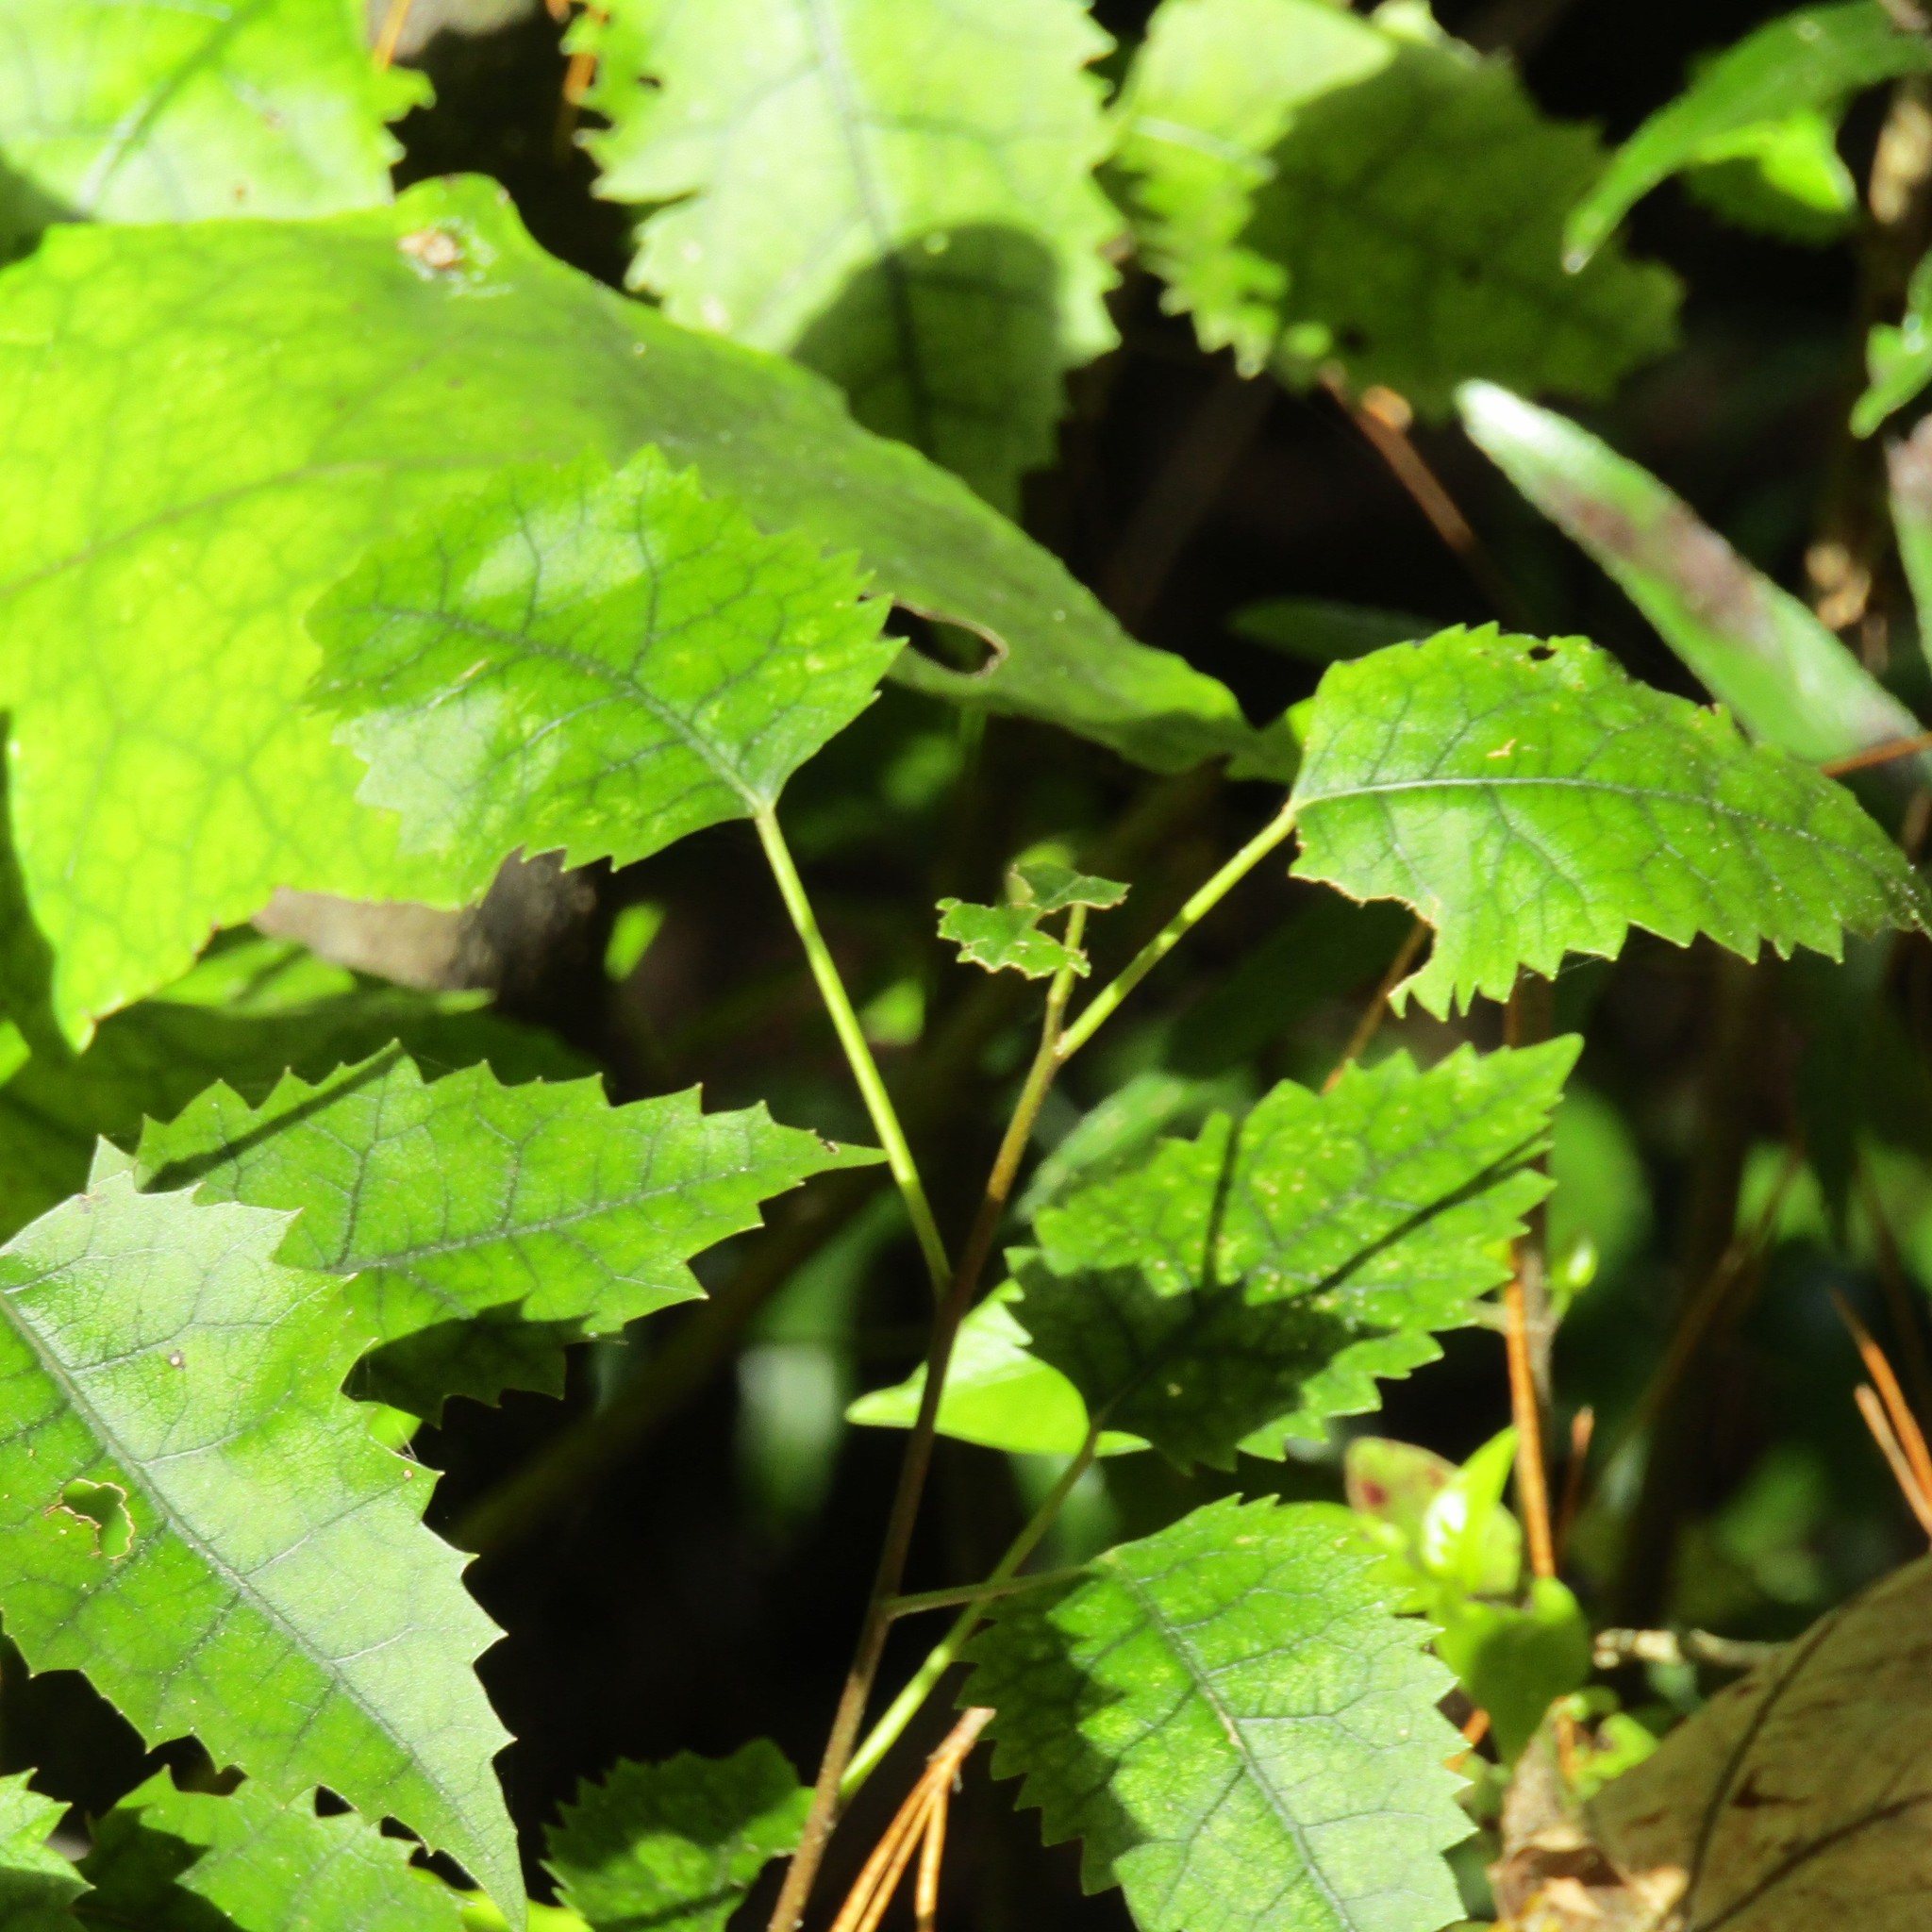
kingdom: Plantae
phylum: Tracheophyta
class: Magnoliopsida
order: Malvales
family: Malvaceae
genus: Hoheria
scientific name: Hoheria populnea
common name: Lacebark
